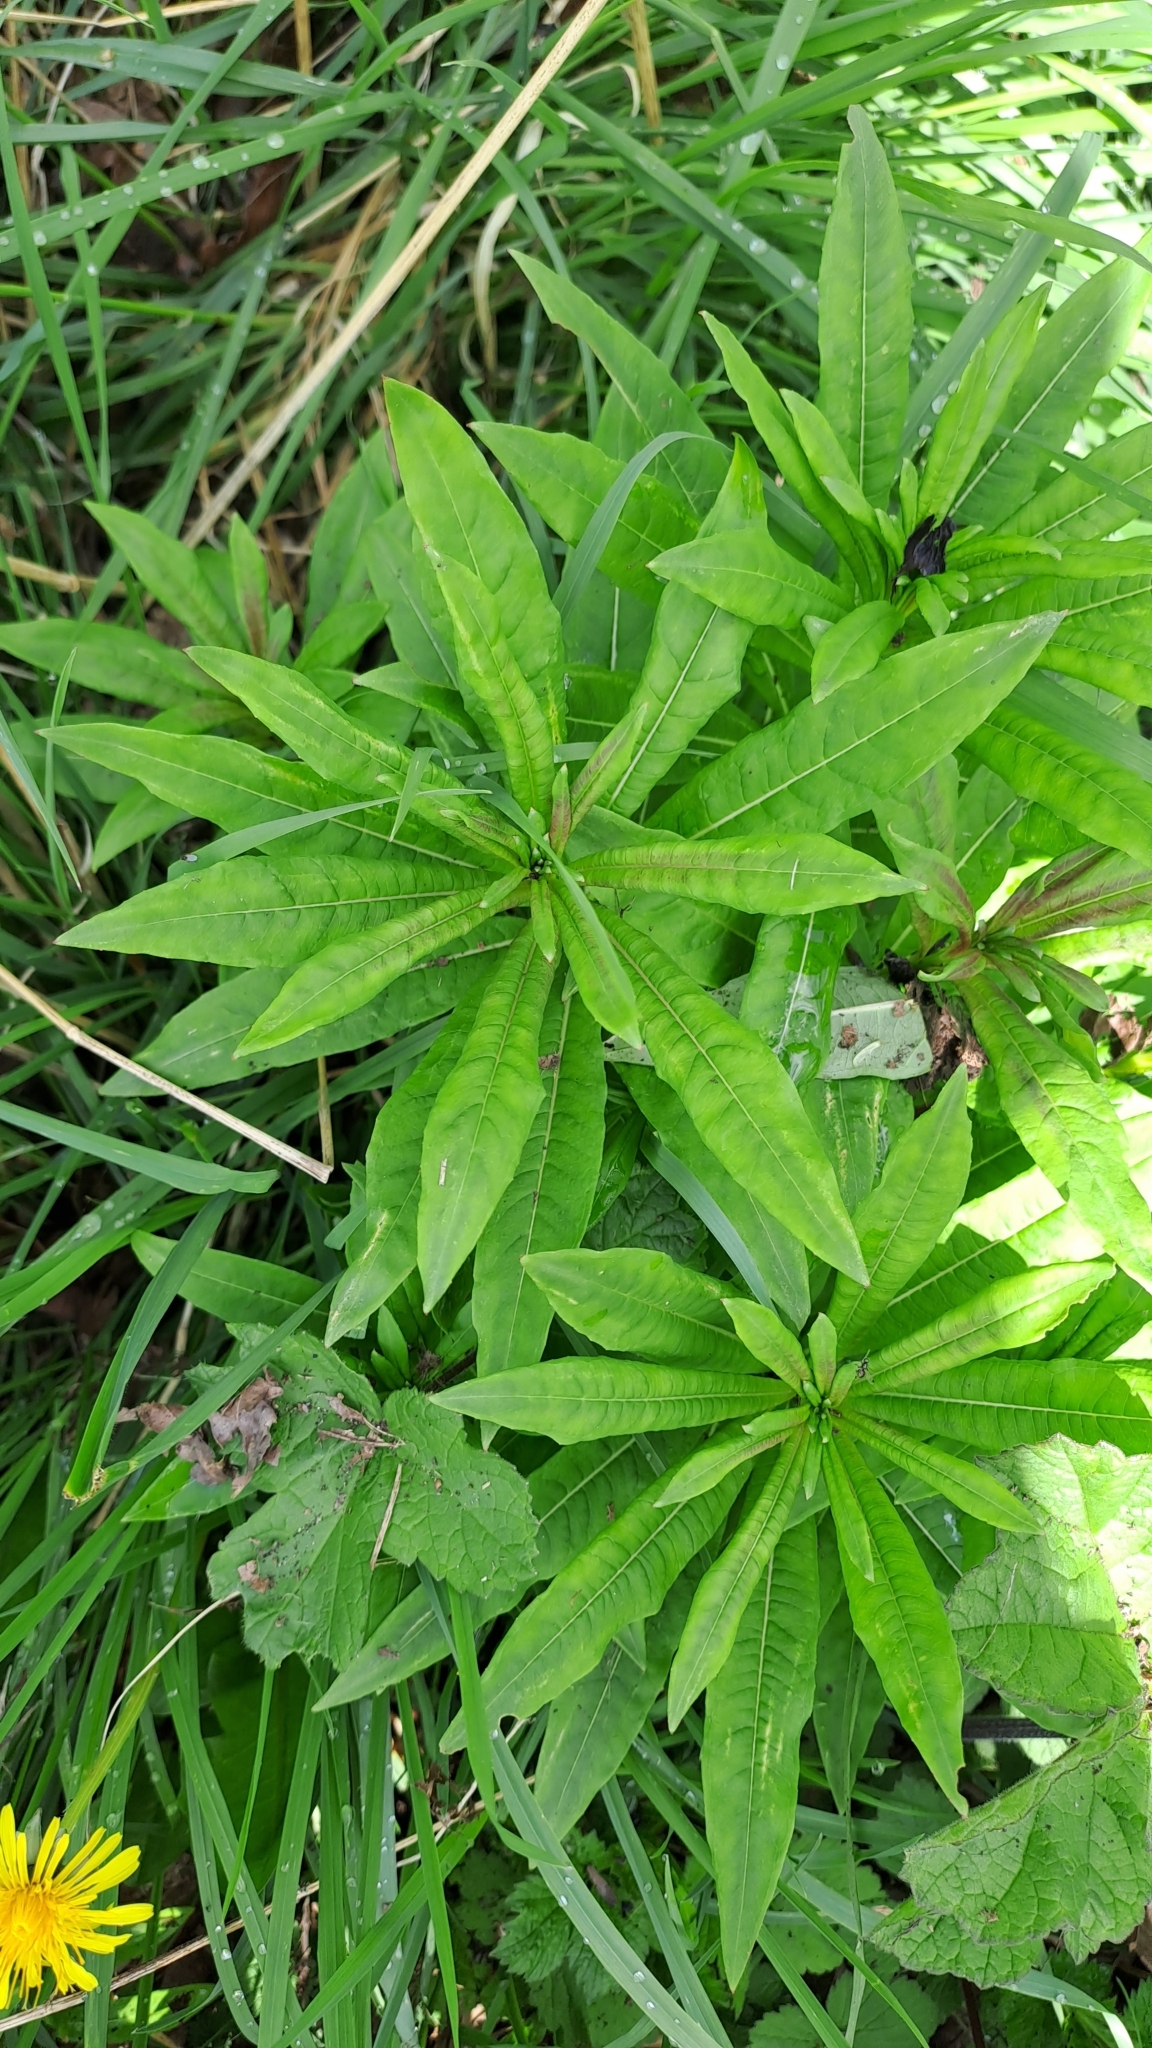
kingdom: Plantae
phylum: Tracheophyta
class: Magnoliopsida
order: Myrtales
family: Onagraceae
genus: Chamaenerion
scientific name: Chamaenerion angustifolium
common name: Fireweed
